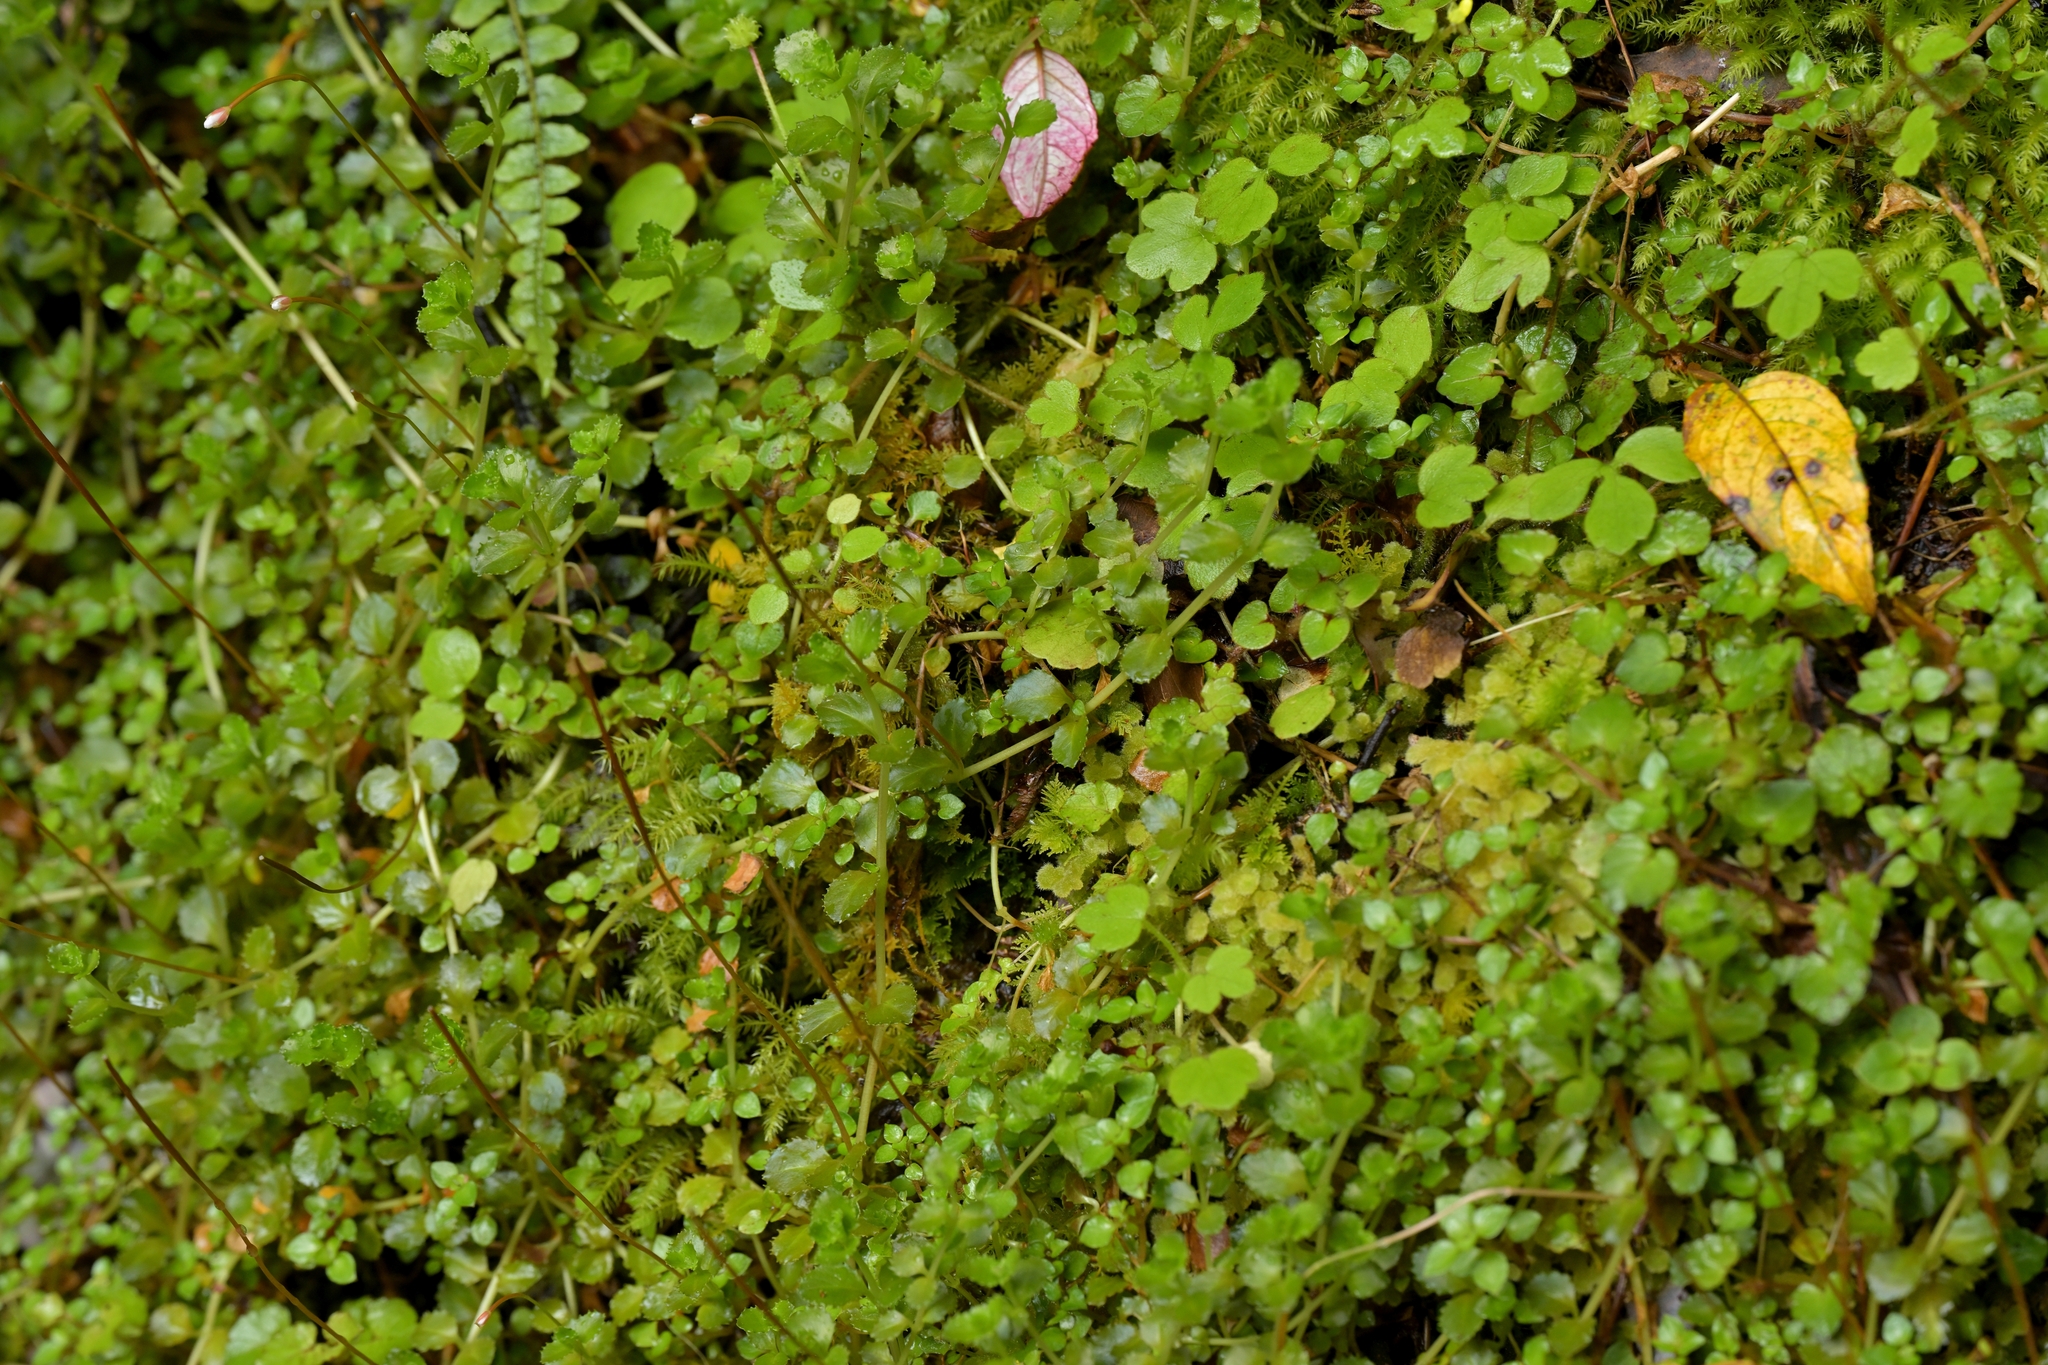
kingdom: Plantae
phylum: Tracheophyta
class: Magnoliopsida
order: Myrtales
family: Onagraceae
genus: Epilobium
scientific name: Epilobium pedunculare
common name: Rockery willowherb
